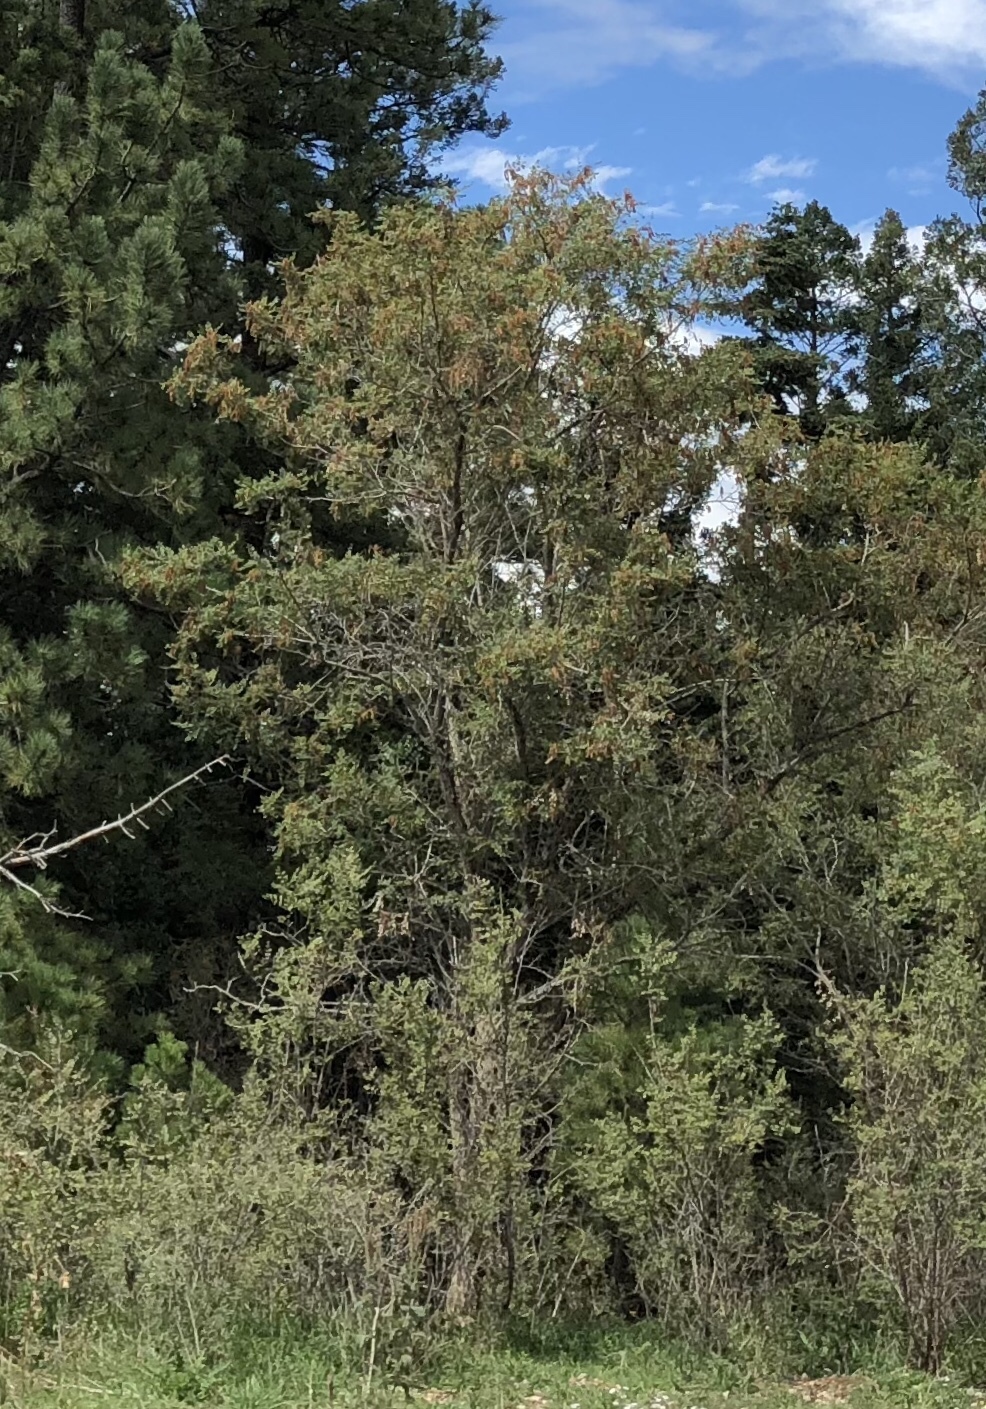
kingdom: Plantae
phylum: Tracheophyta
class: Magnoliopsida
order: Fabales
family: Fabaceae
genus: Robinia
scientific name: Robinia neomexicana
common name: New mexico locust
